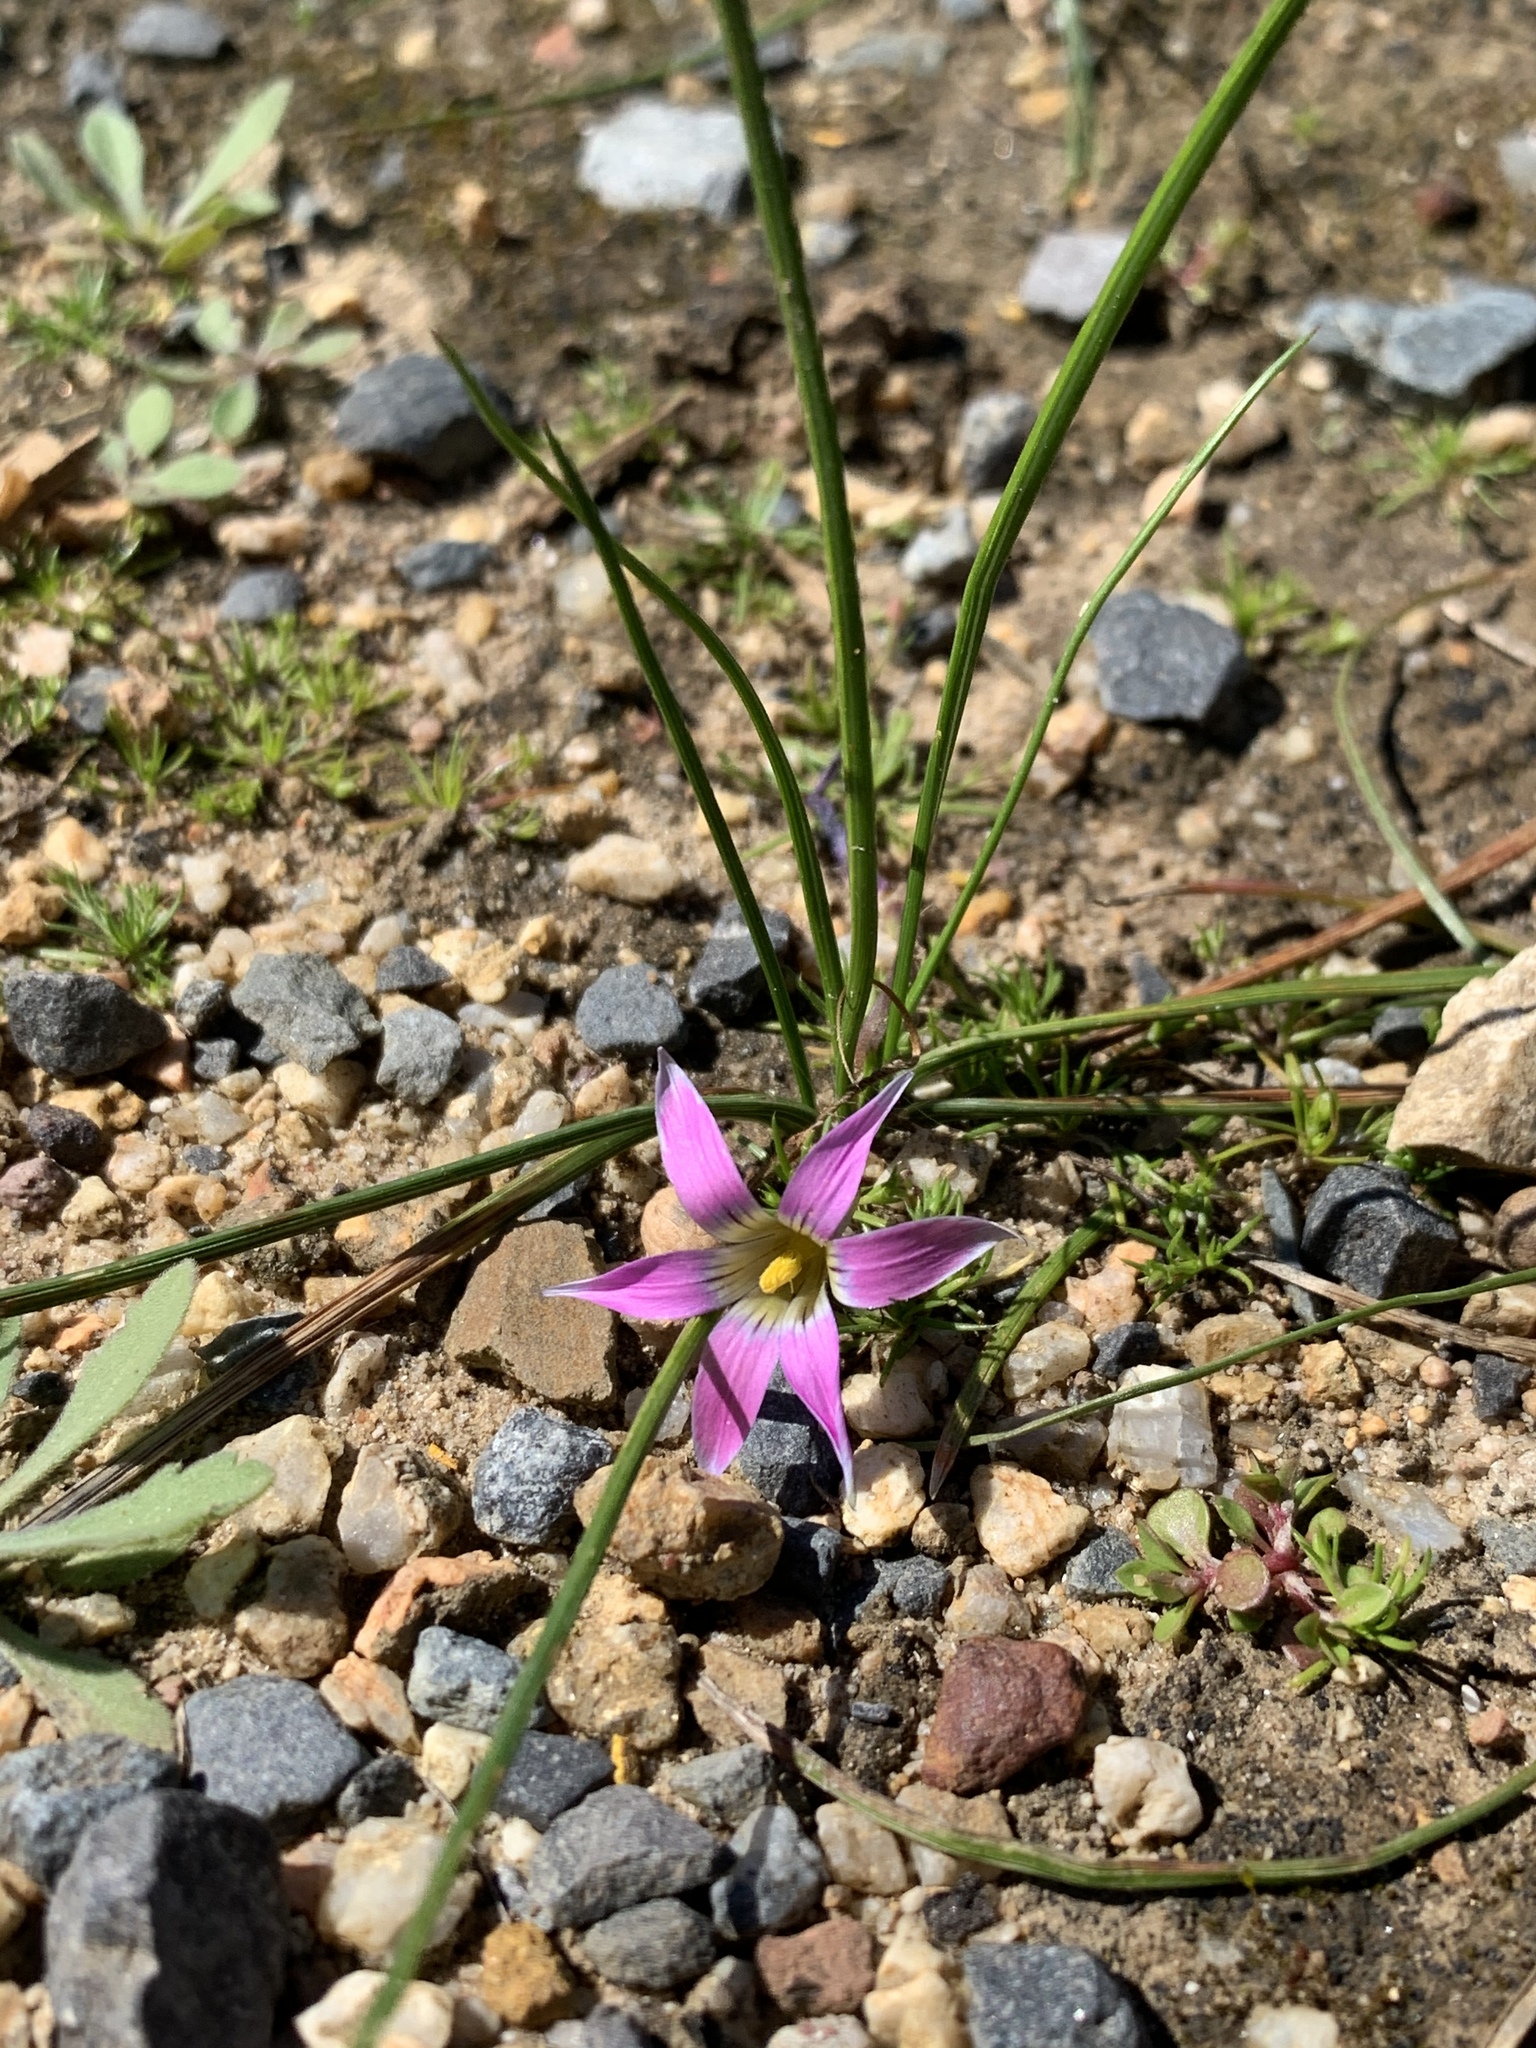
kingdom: Plantae
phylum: Tracheophyta
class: Liliopsida
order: Asparagales
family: Iridaceae
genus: Romulea
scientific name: Romulea rosea
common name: Oniongrass
